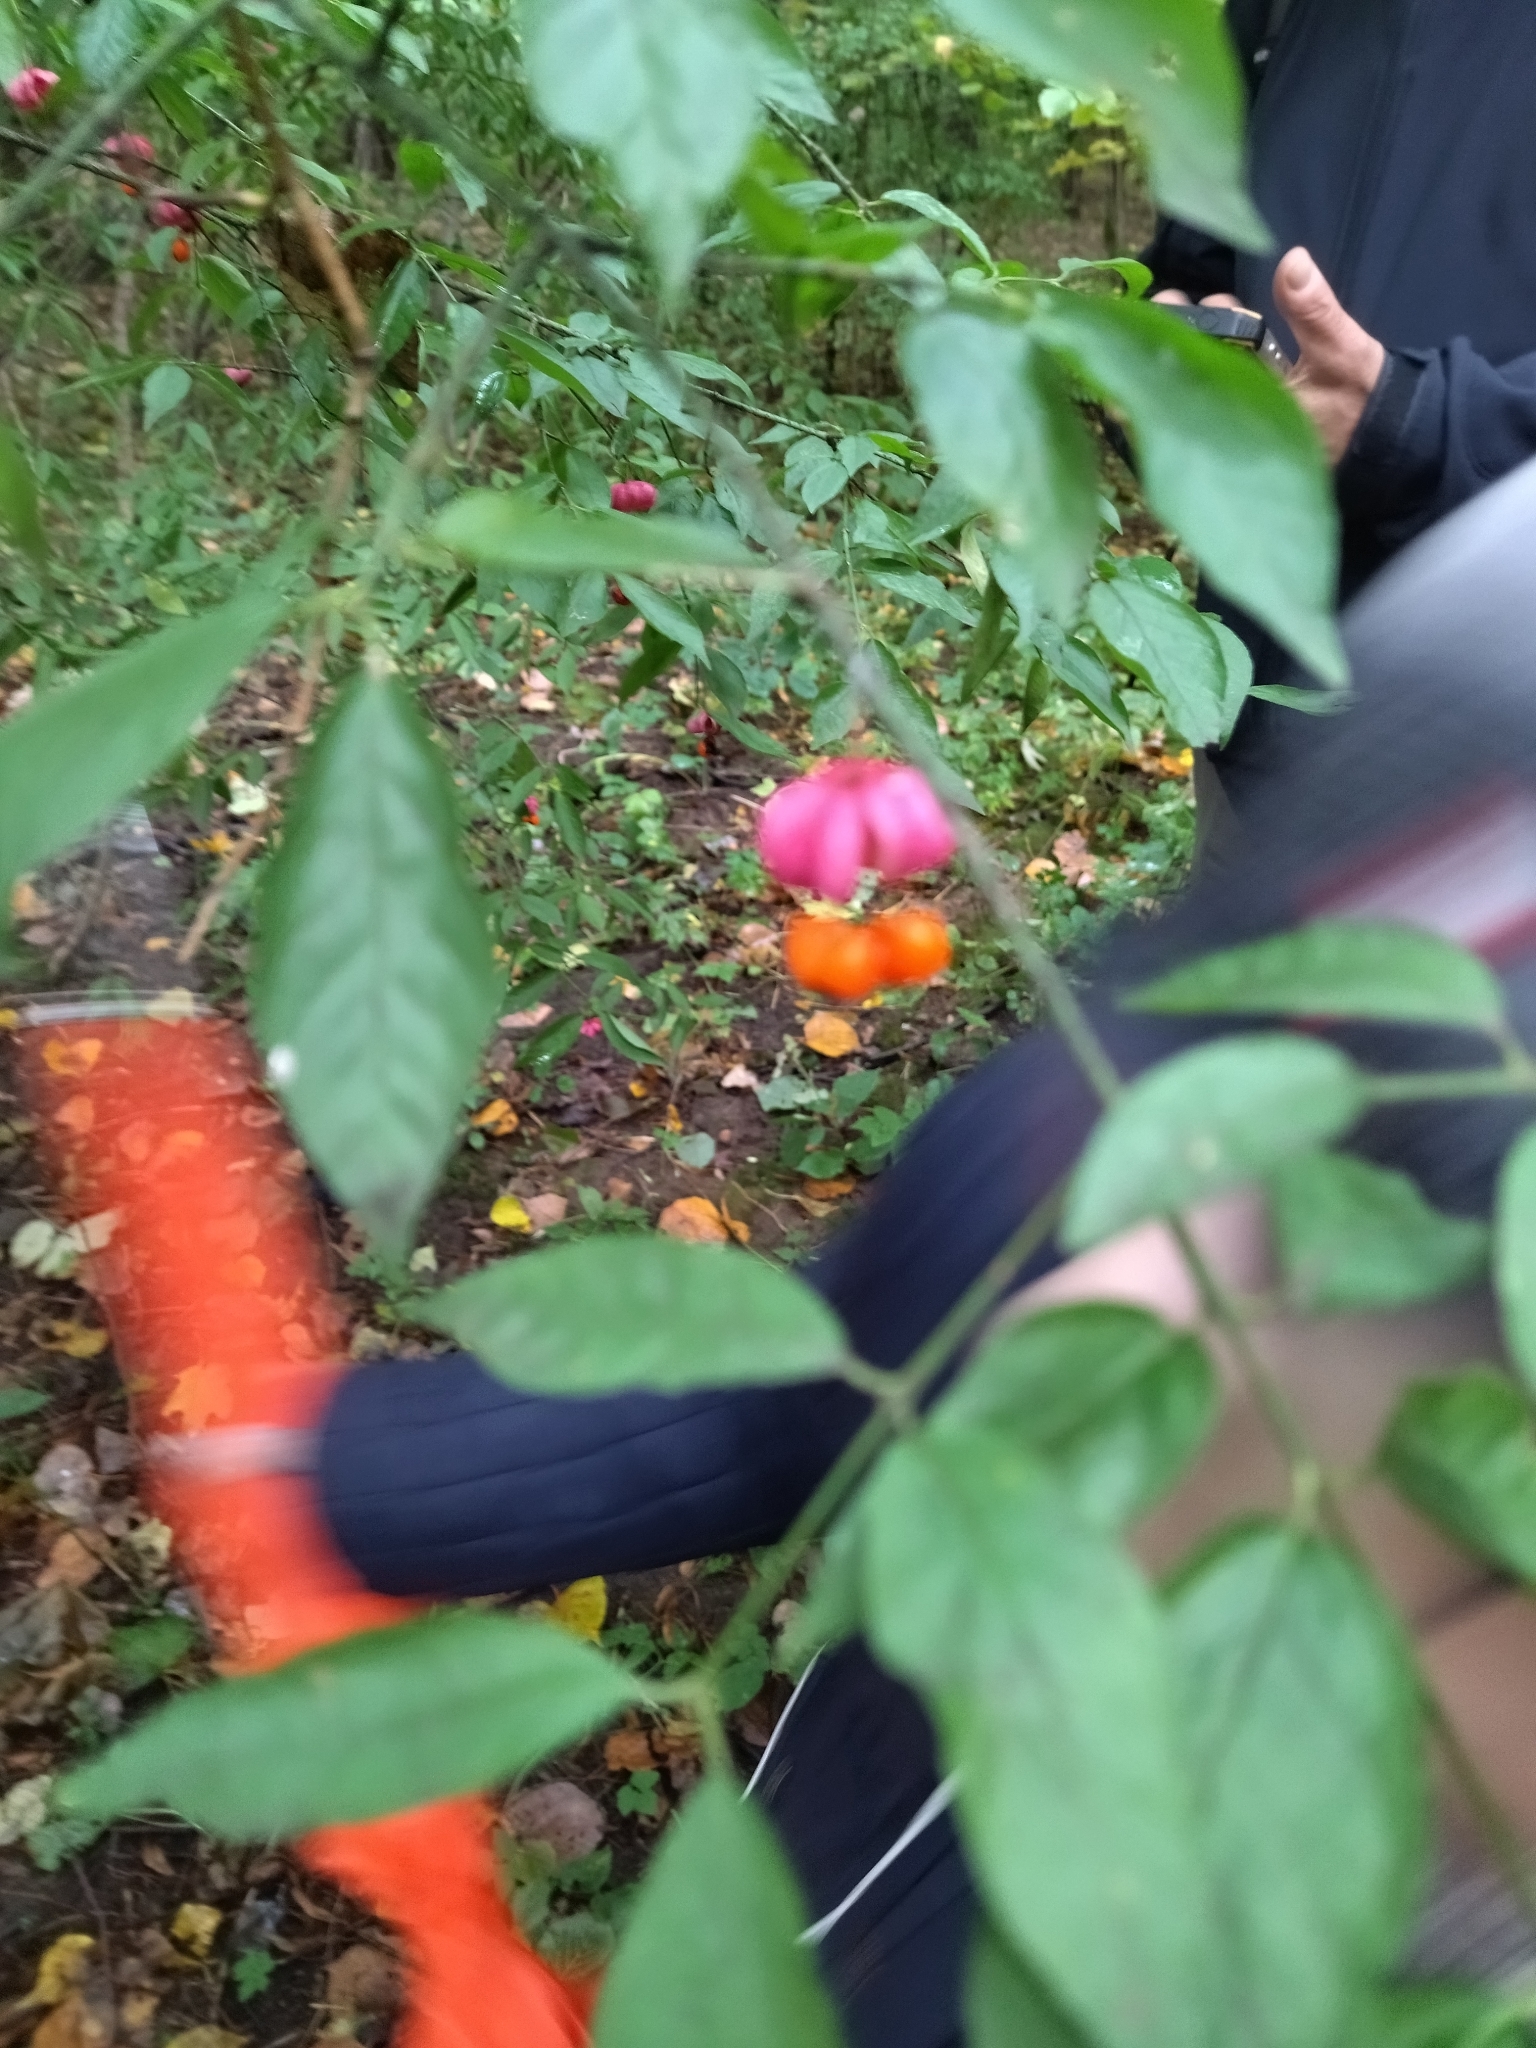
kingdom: Plantae
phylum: Tracheophyta
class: Magnoliopsida
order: Celastrales
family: Celastraceae
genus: Euonymus
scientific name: Euonymus verrucosus
